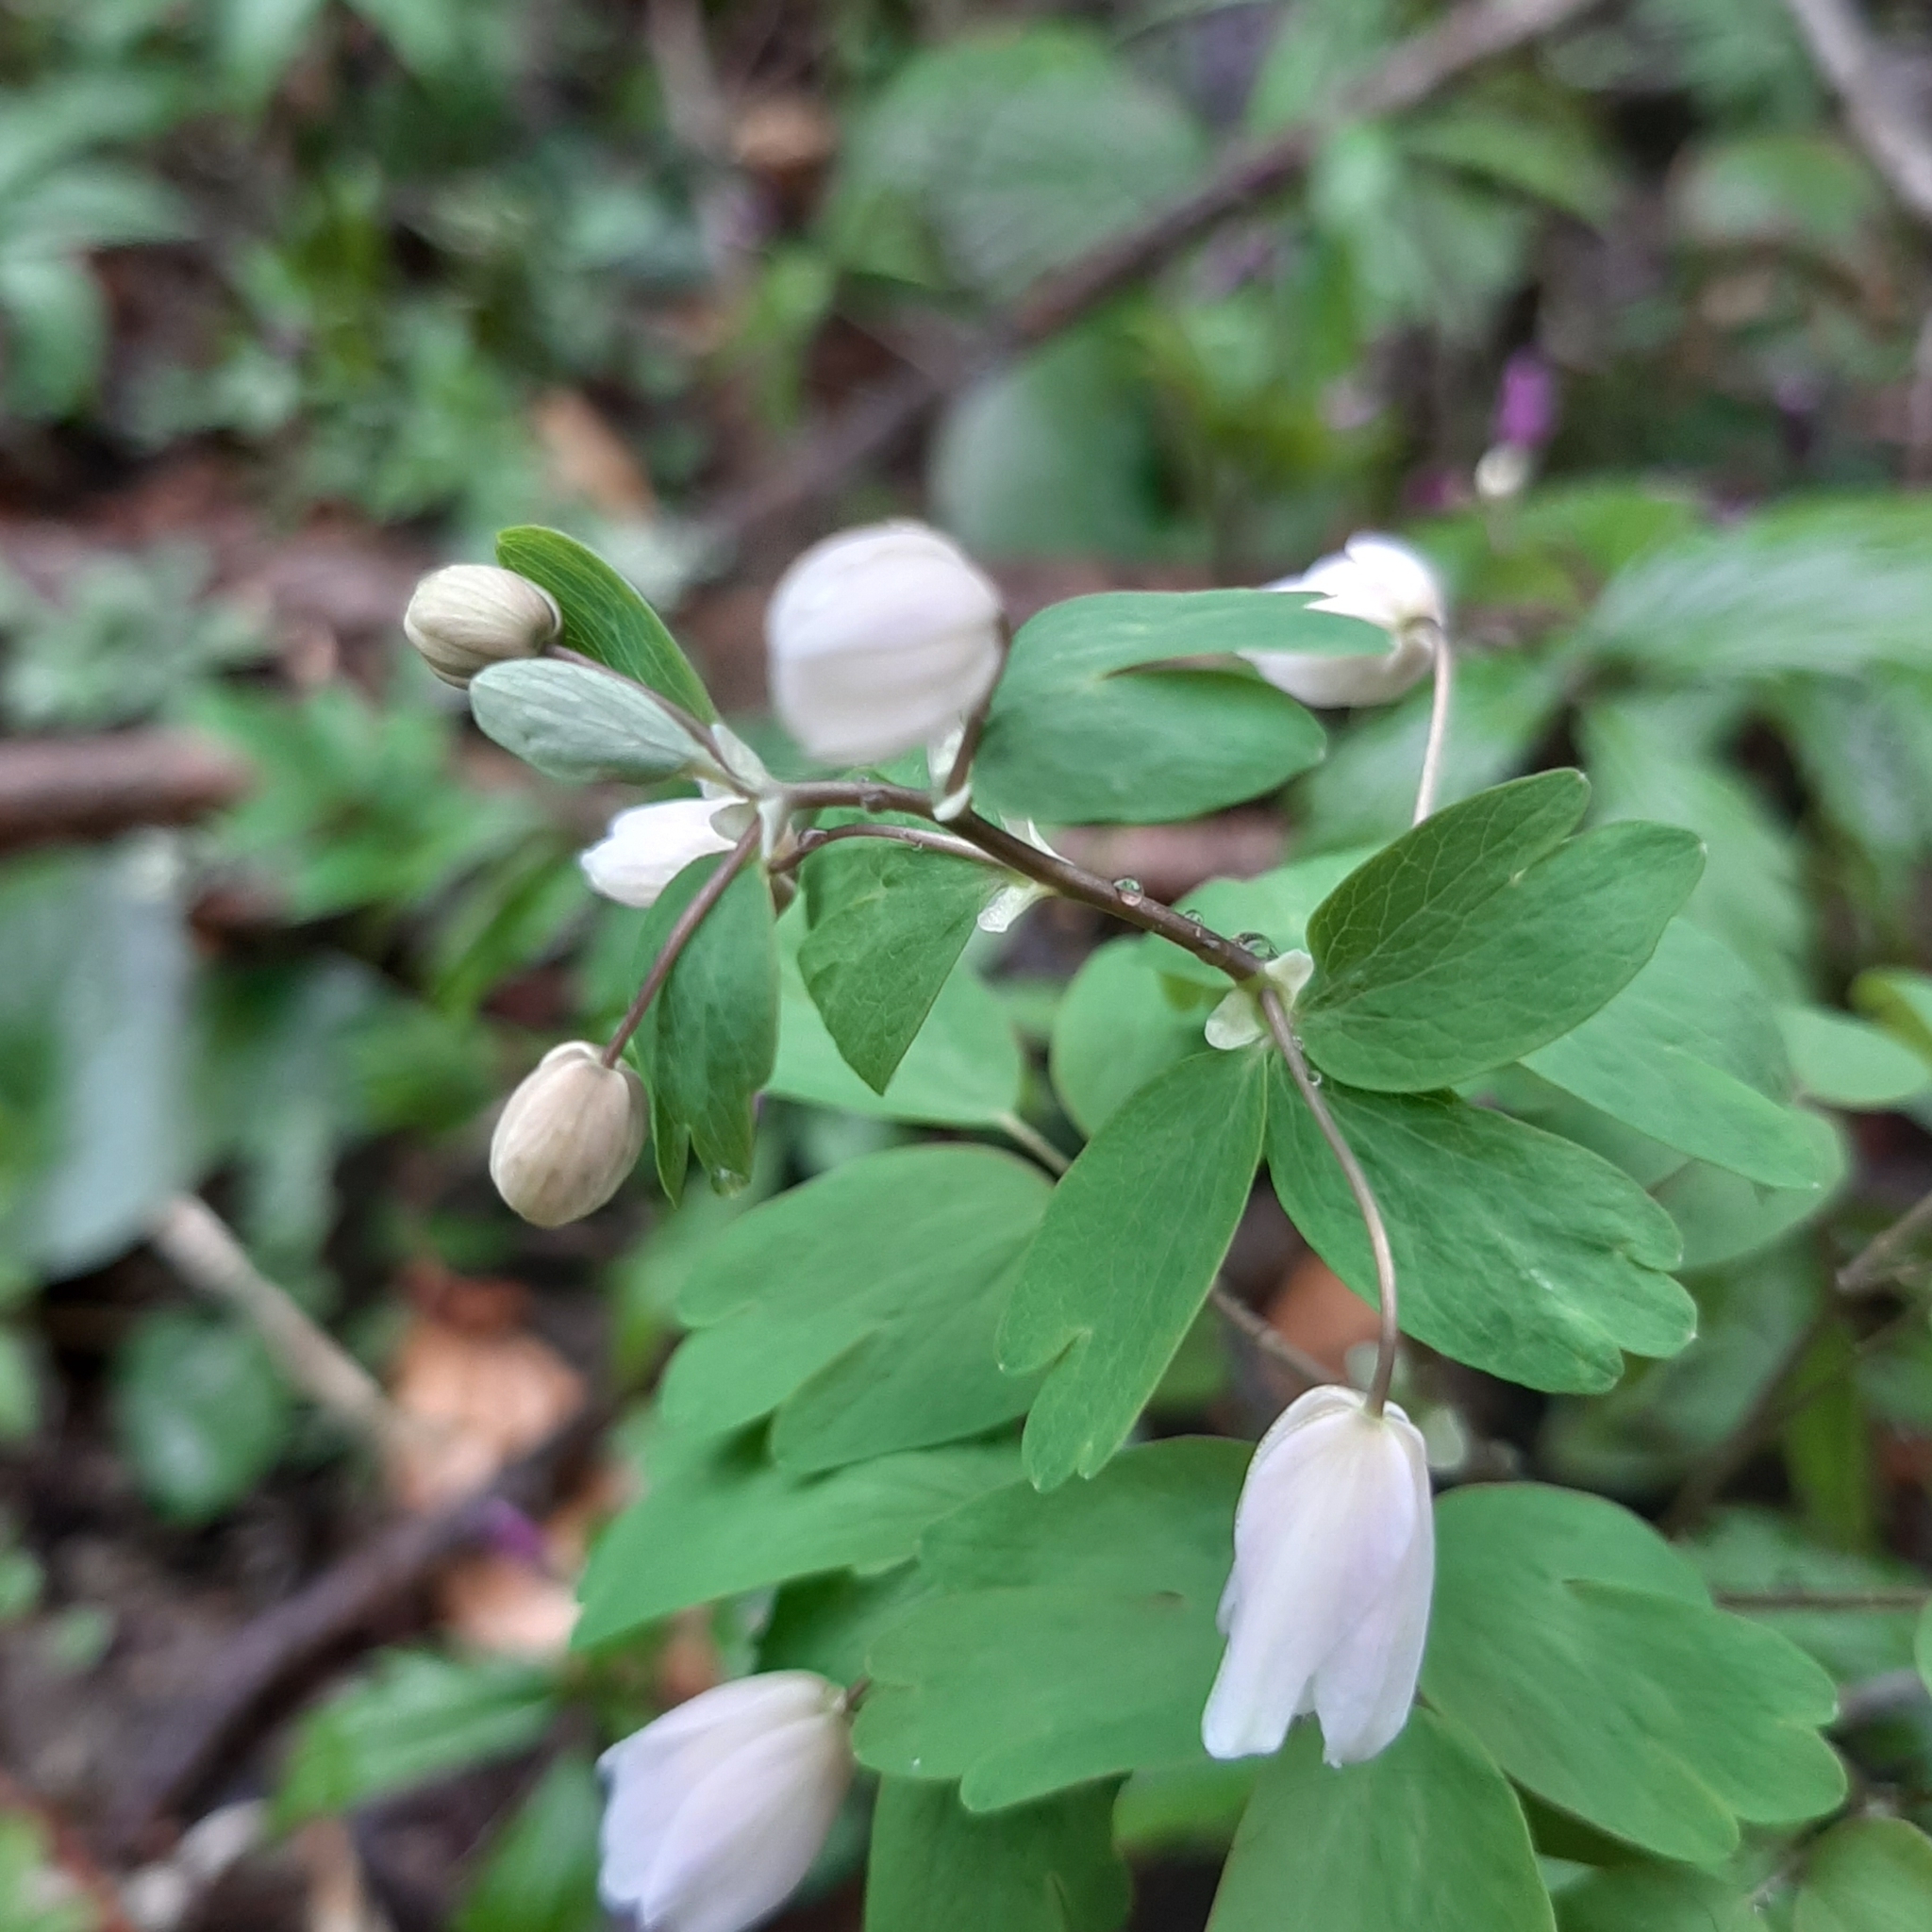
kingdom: Plantae
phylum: Tracheophyta
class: Magnoliopsida
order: Ranunculales
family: Ranunculaceae
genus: Isopyrum
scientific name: Isopyrum thalictroides
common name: Isopyrum
